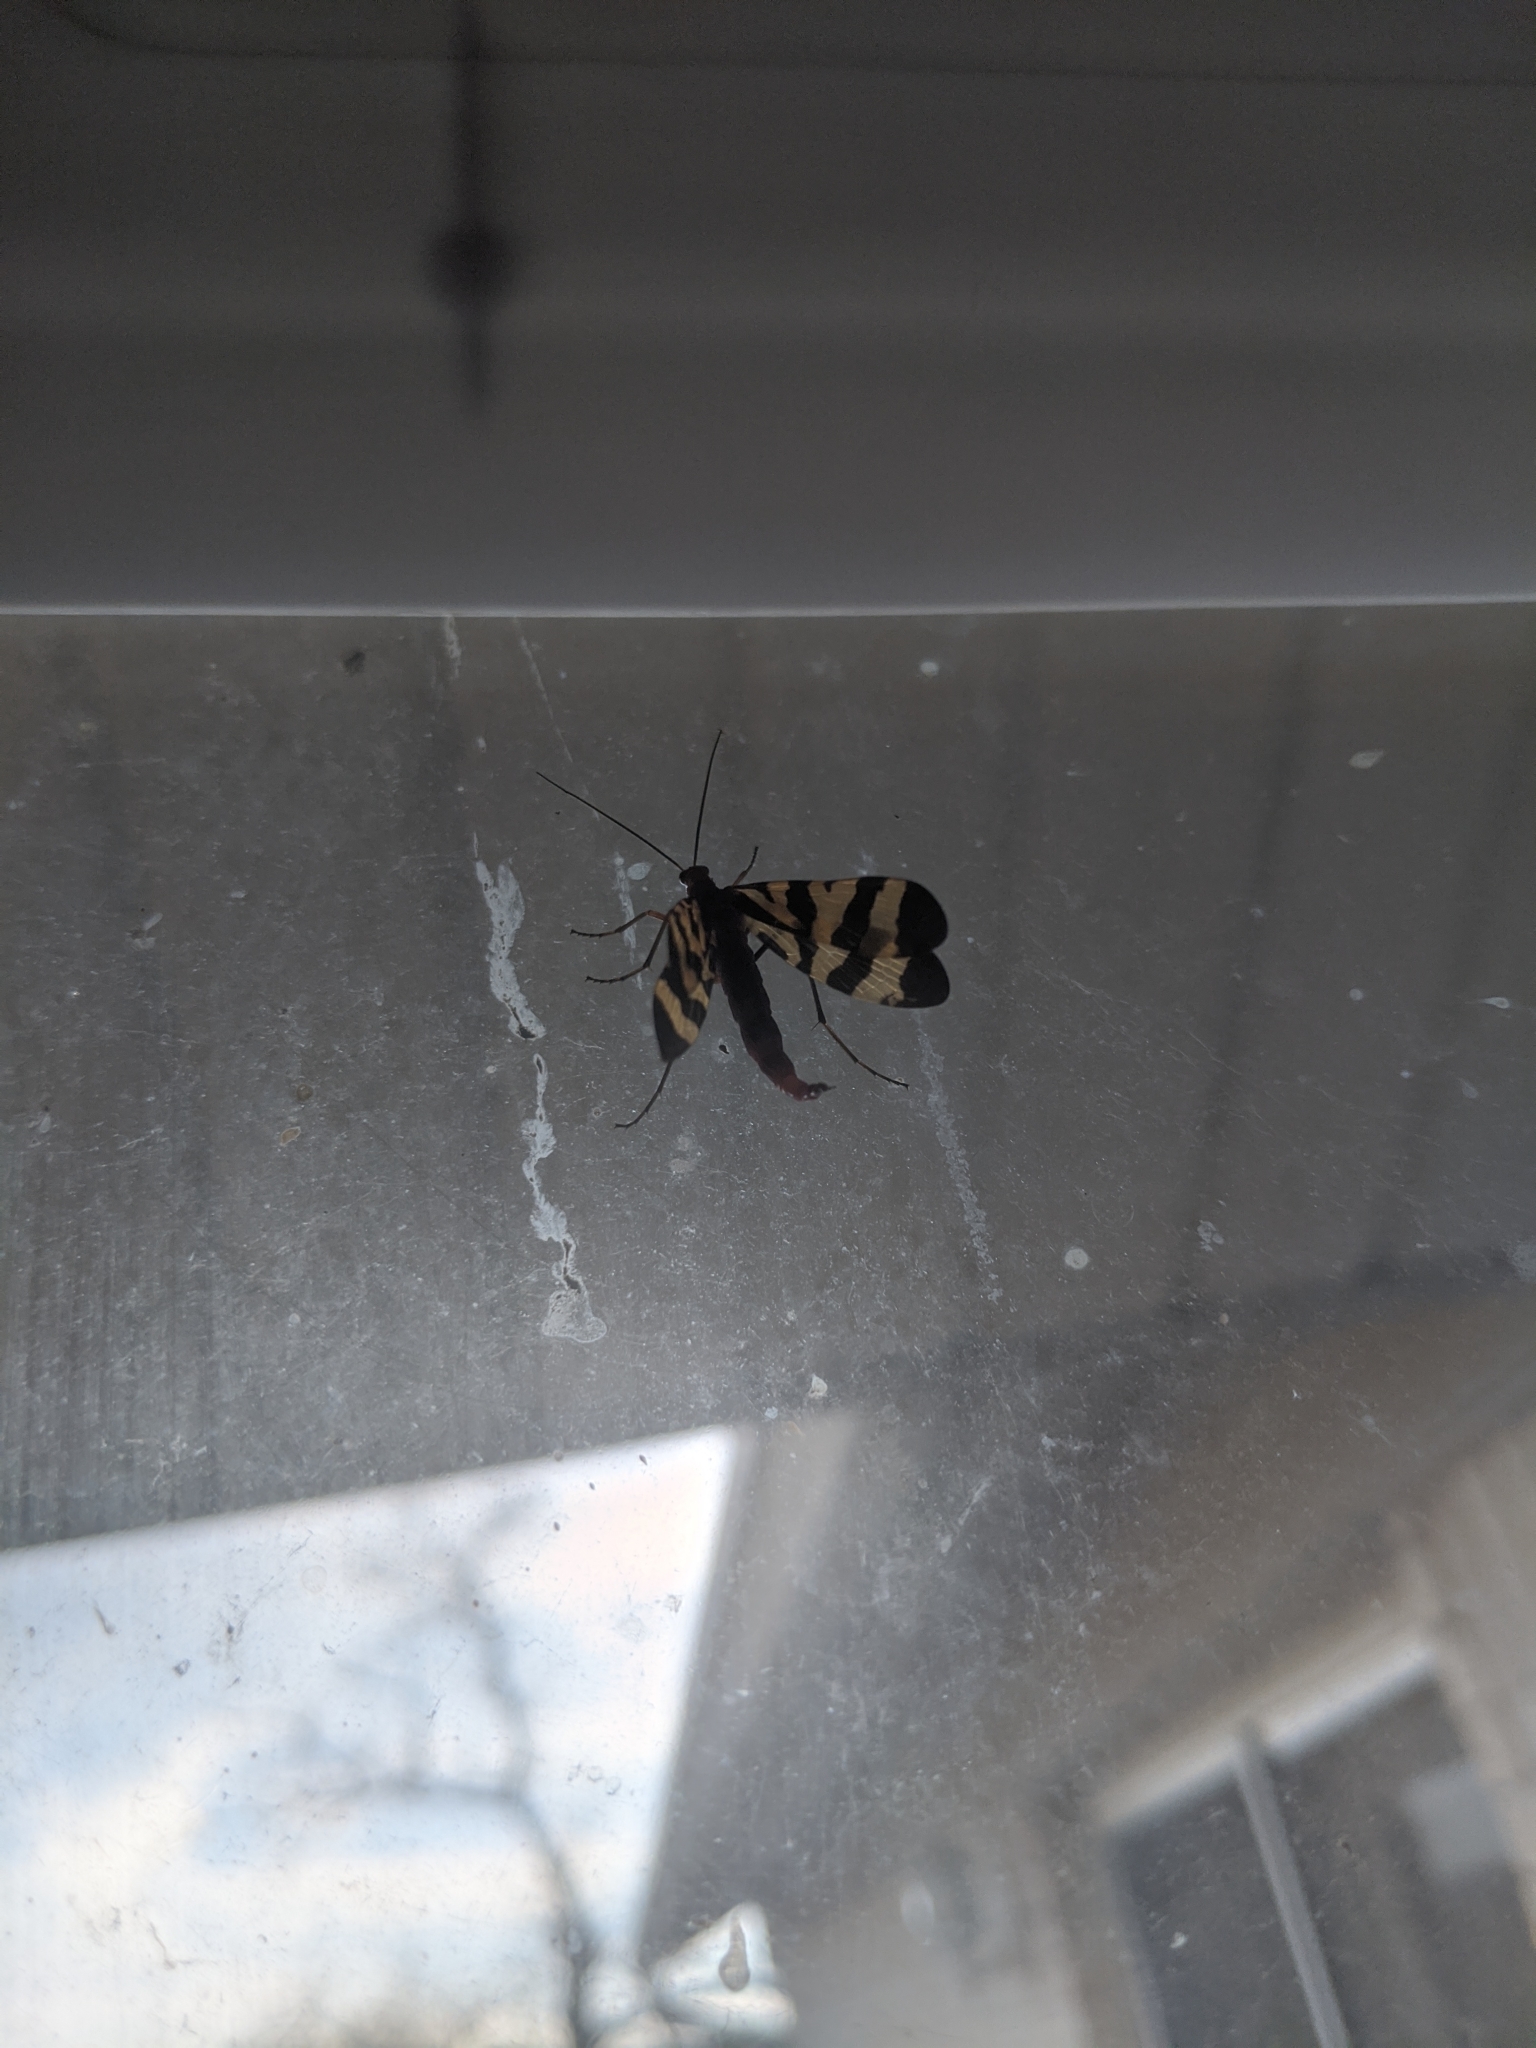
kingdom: Animalia
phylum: Arthropoda
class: Insecta
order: Mecoptera
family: Panorpidae
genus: Panorpa
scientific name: Panorpa nuptialis
